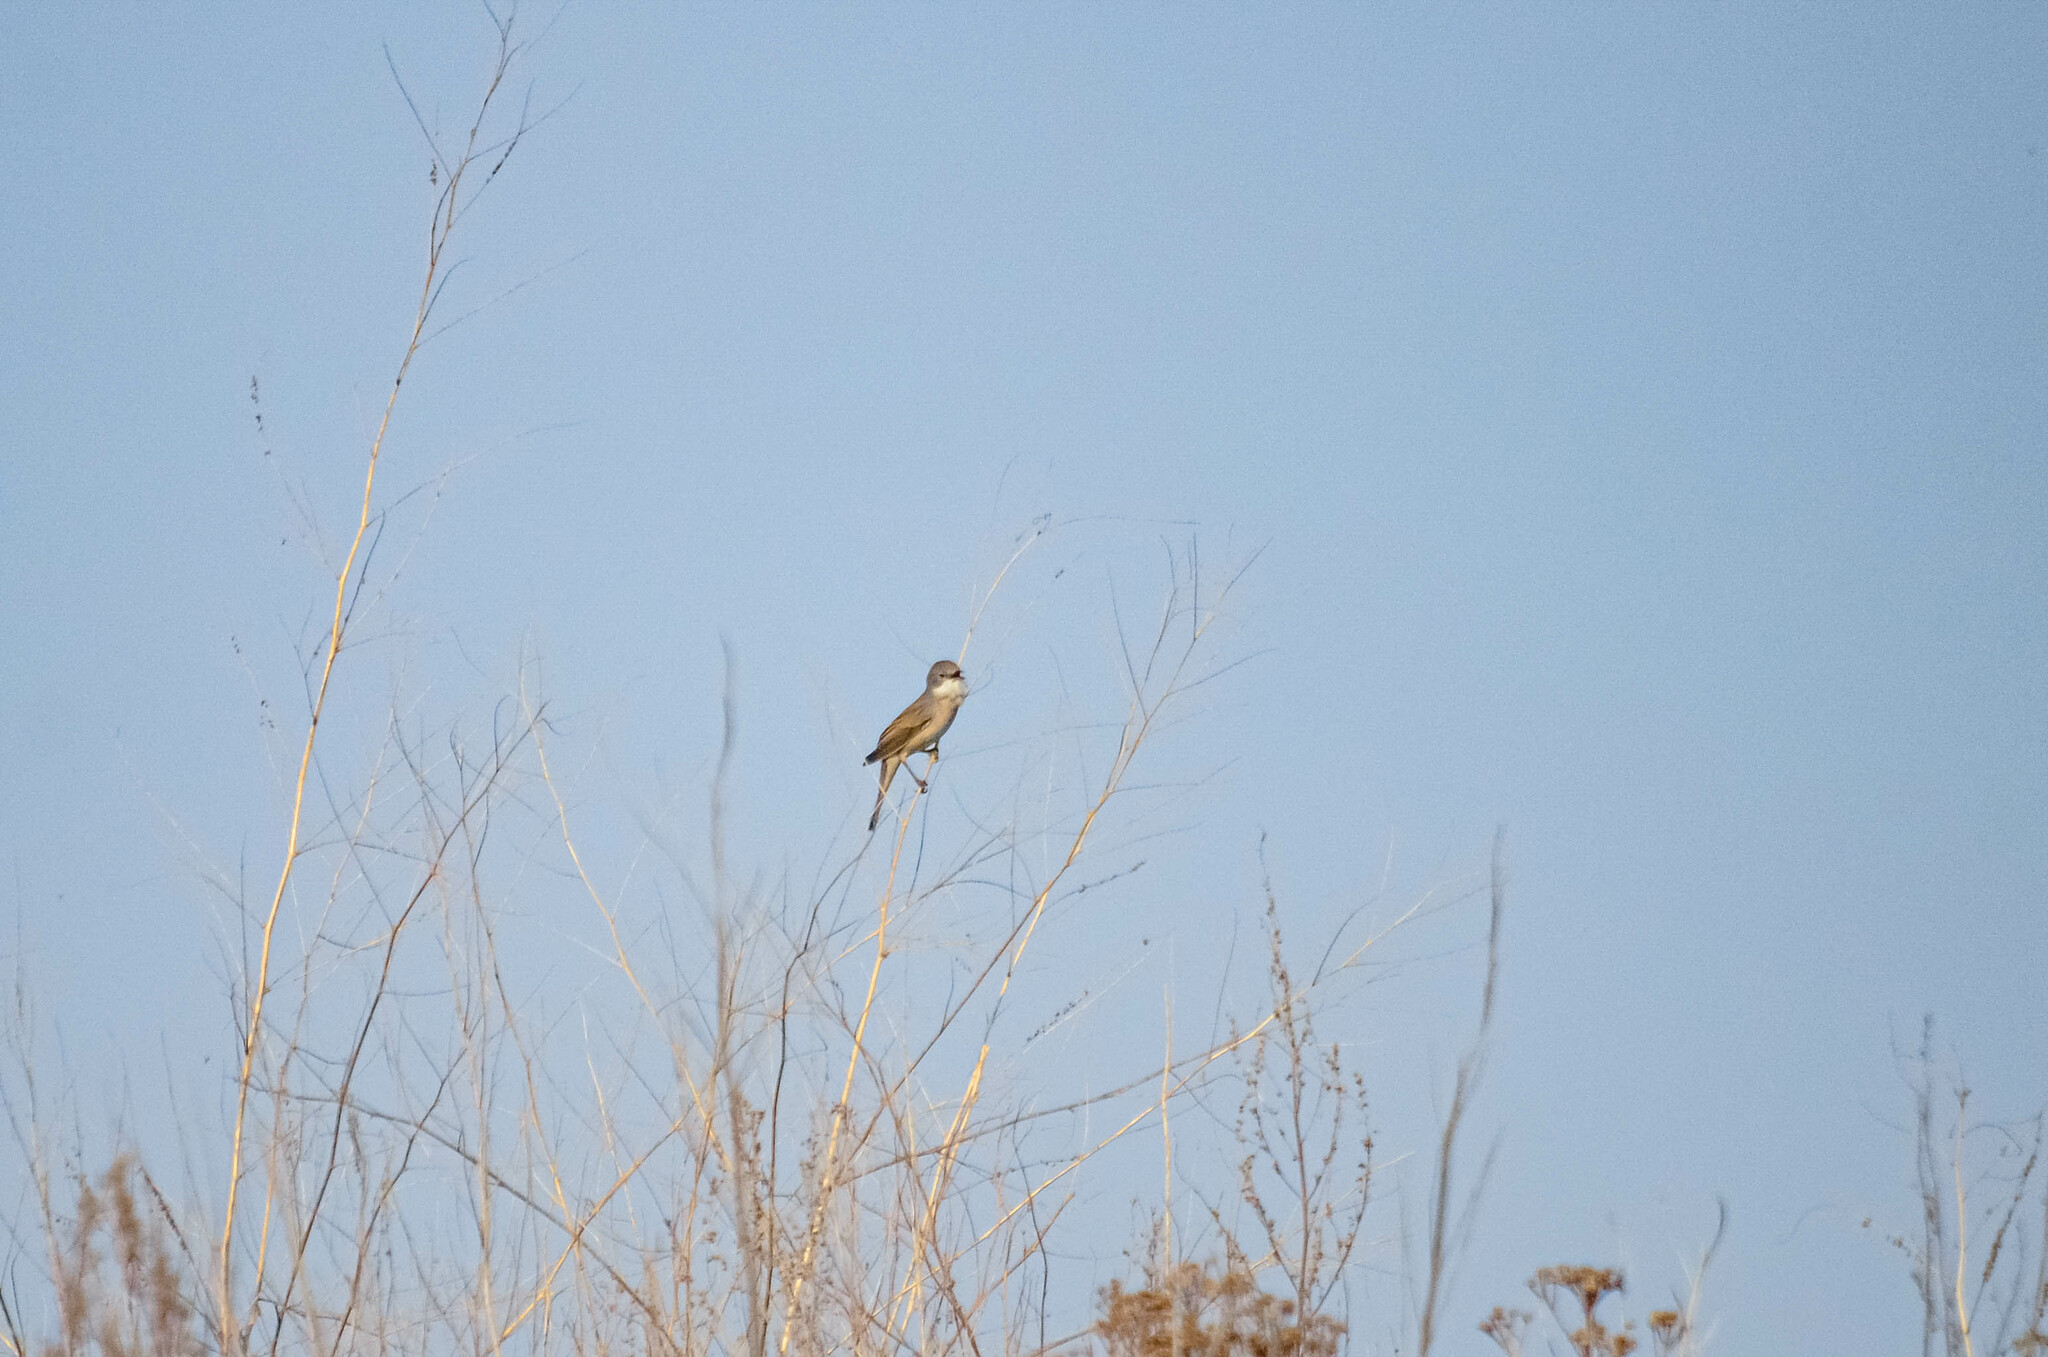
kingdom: Animalia
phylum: Chordata
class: Aves
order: Passeriformes
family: Sylviidae
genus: Sylvia
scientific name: Sylvia communis
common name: Common whitethroat
